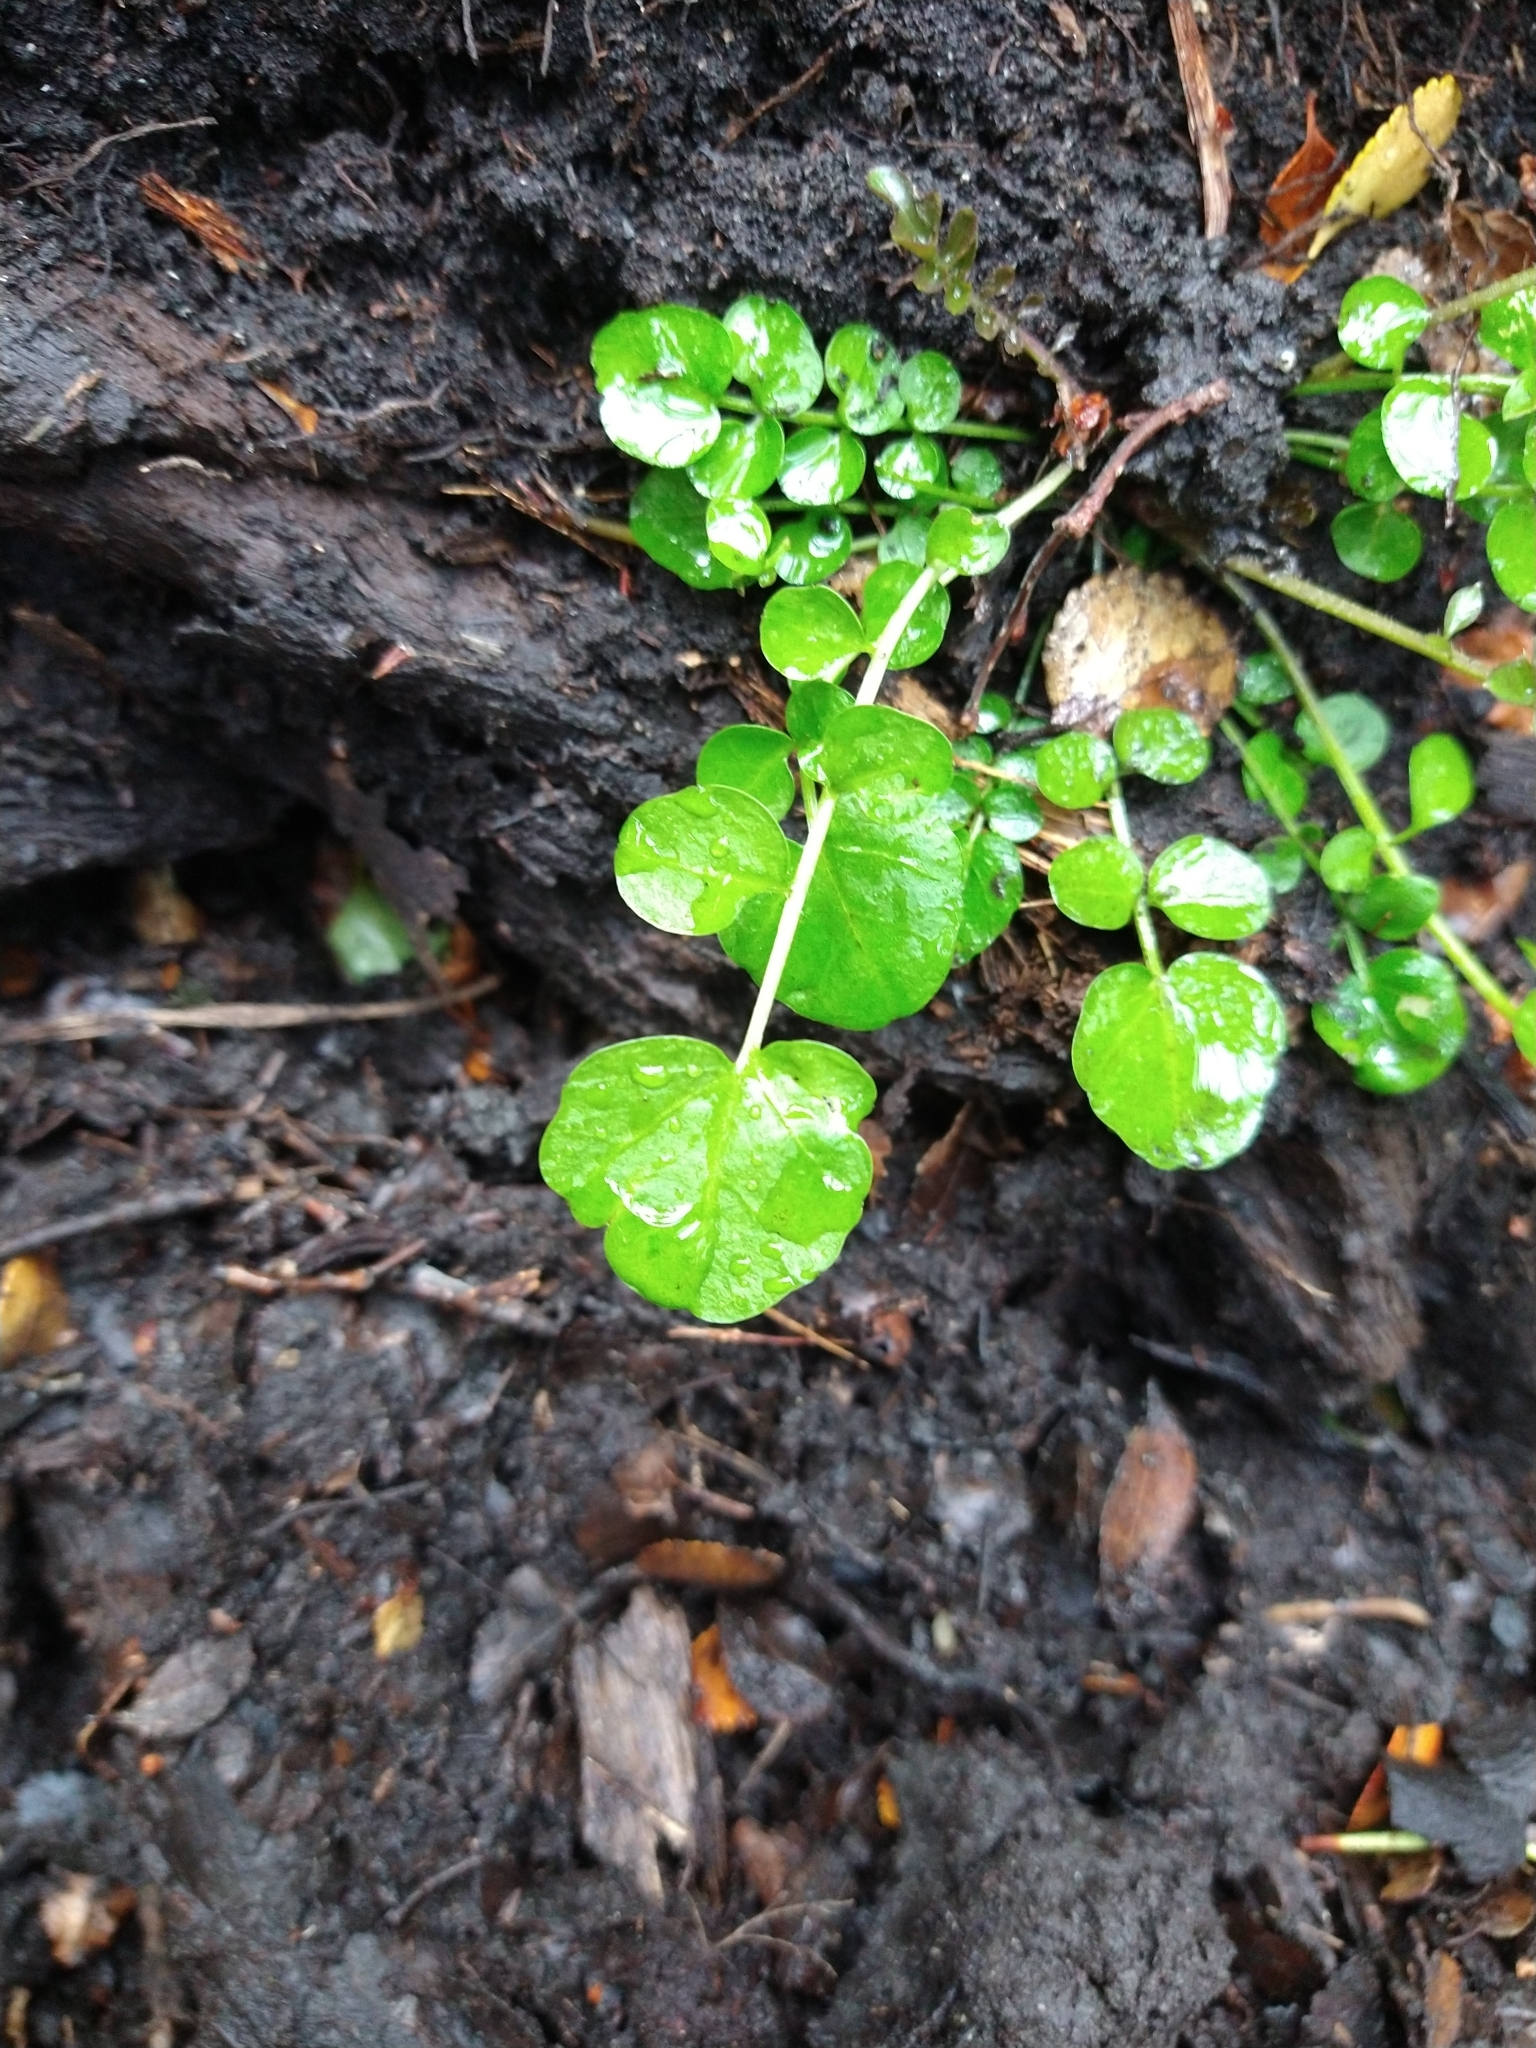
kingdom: Plantae
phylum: Tracheophyta
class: Magnoliopsida
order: Brassicales
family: Brassicaceae
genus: Cardamine
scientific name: Cardamine glacialis
